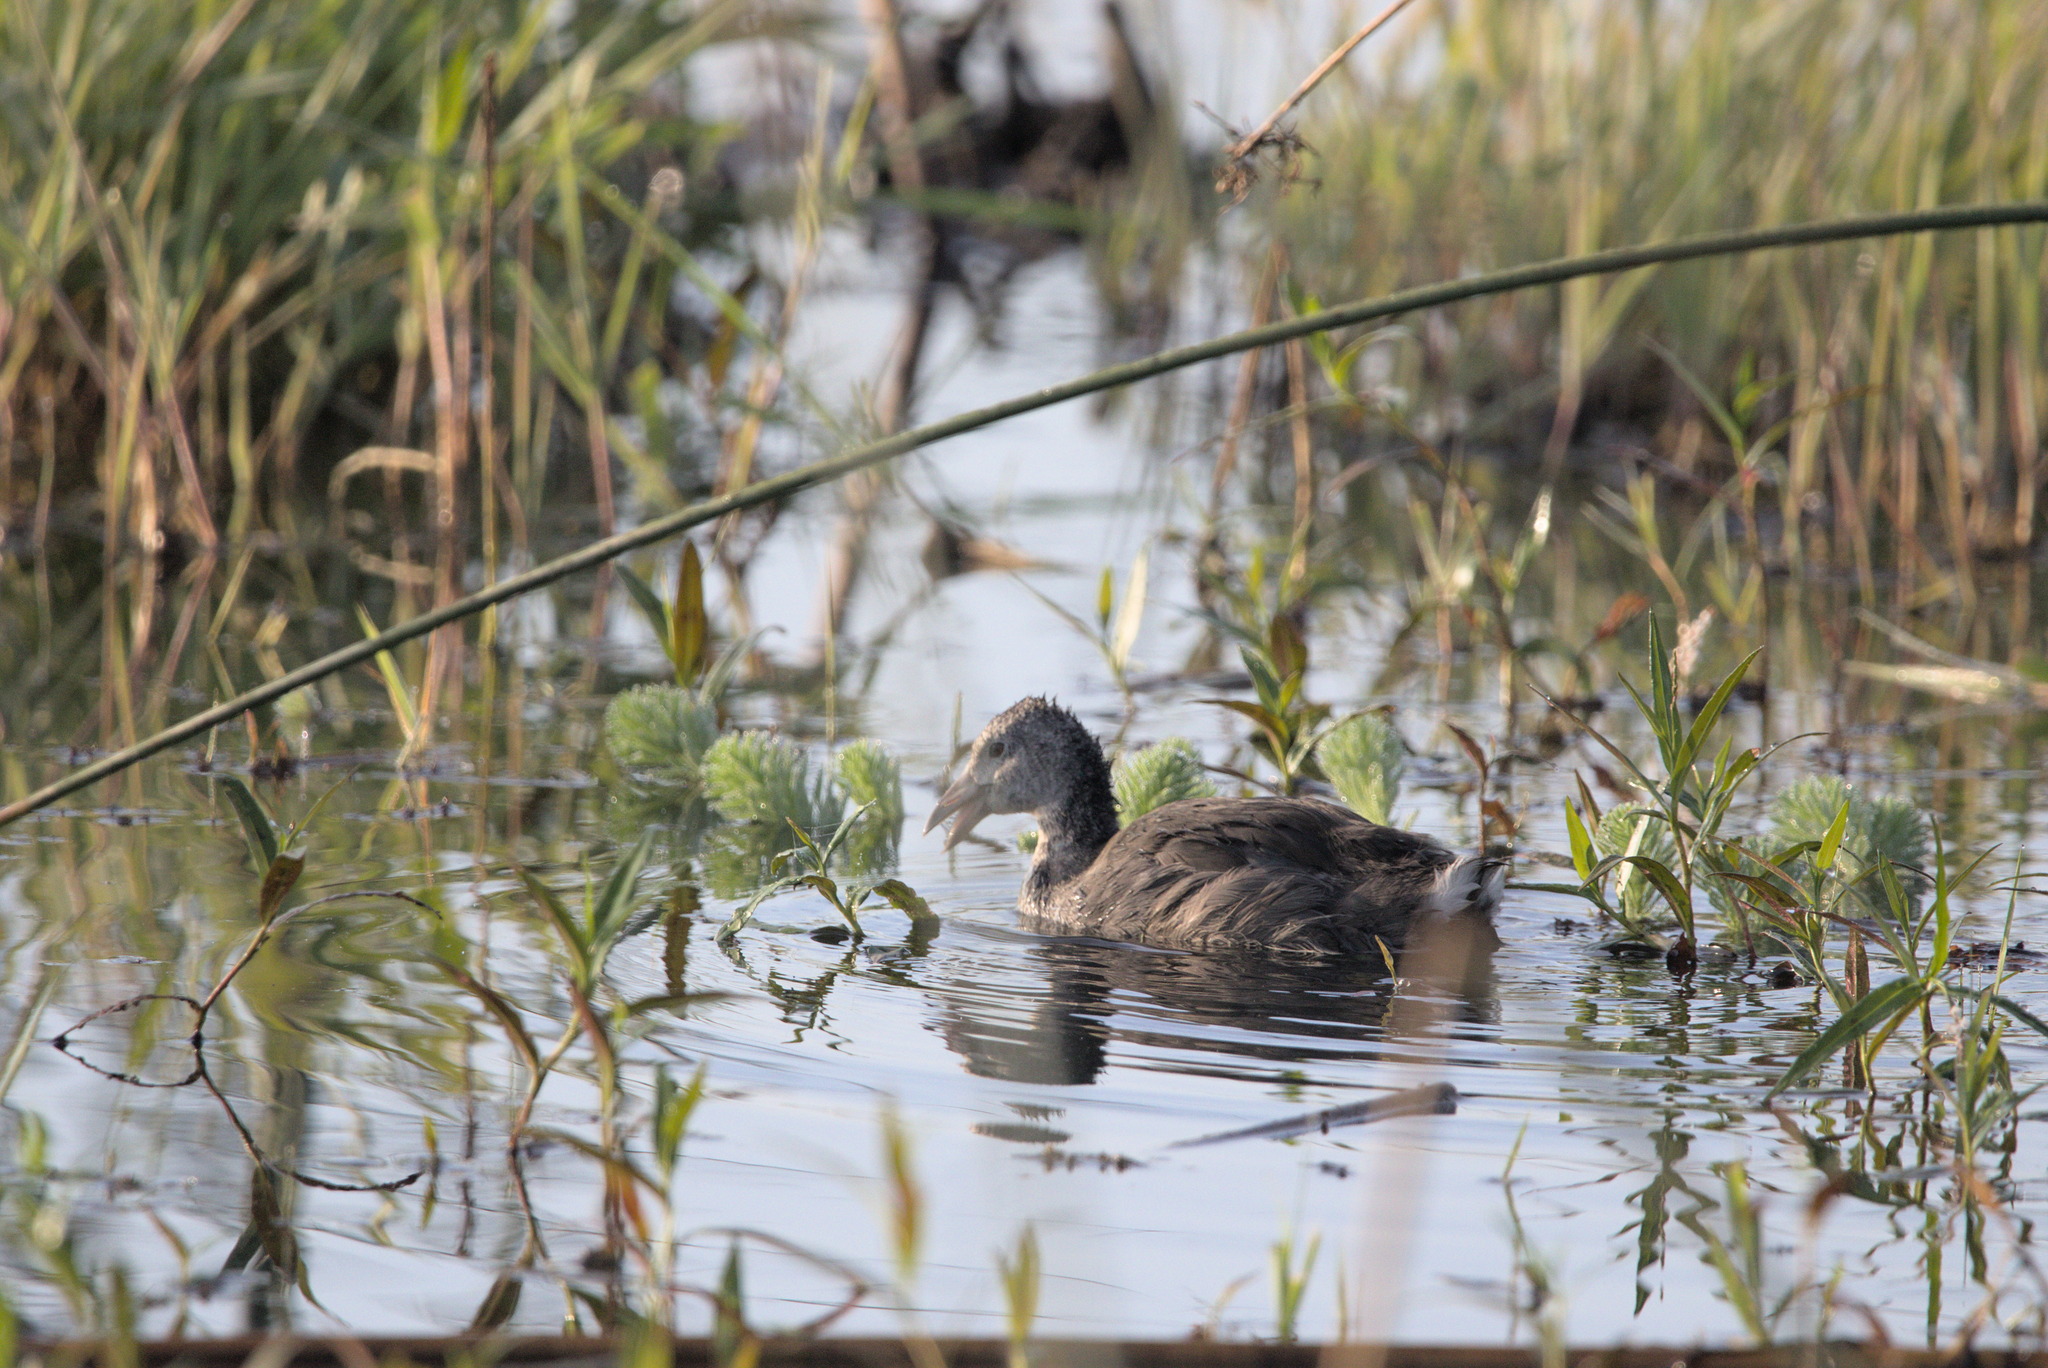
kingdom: Animalia
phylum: Chordata
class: Aves
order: Gruiformes
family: Rallidae
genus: Fulica
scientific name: Fulica americana
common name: American coot
